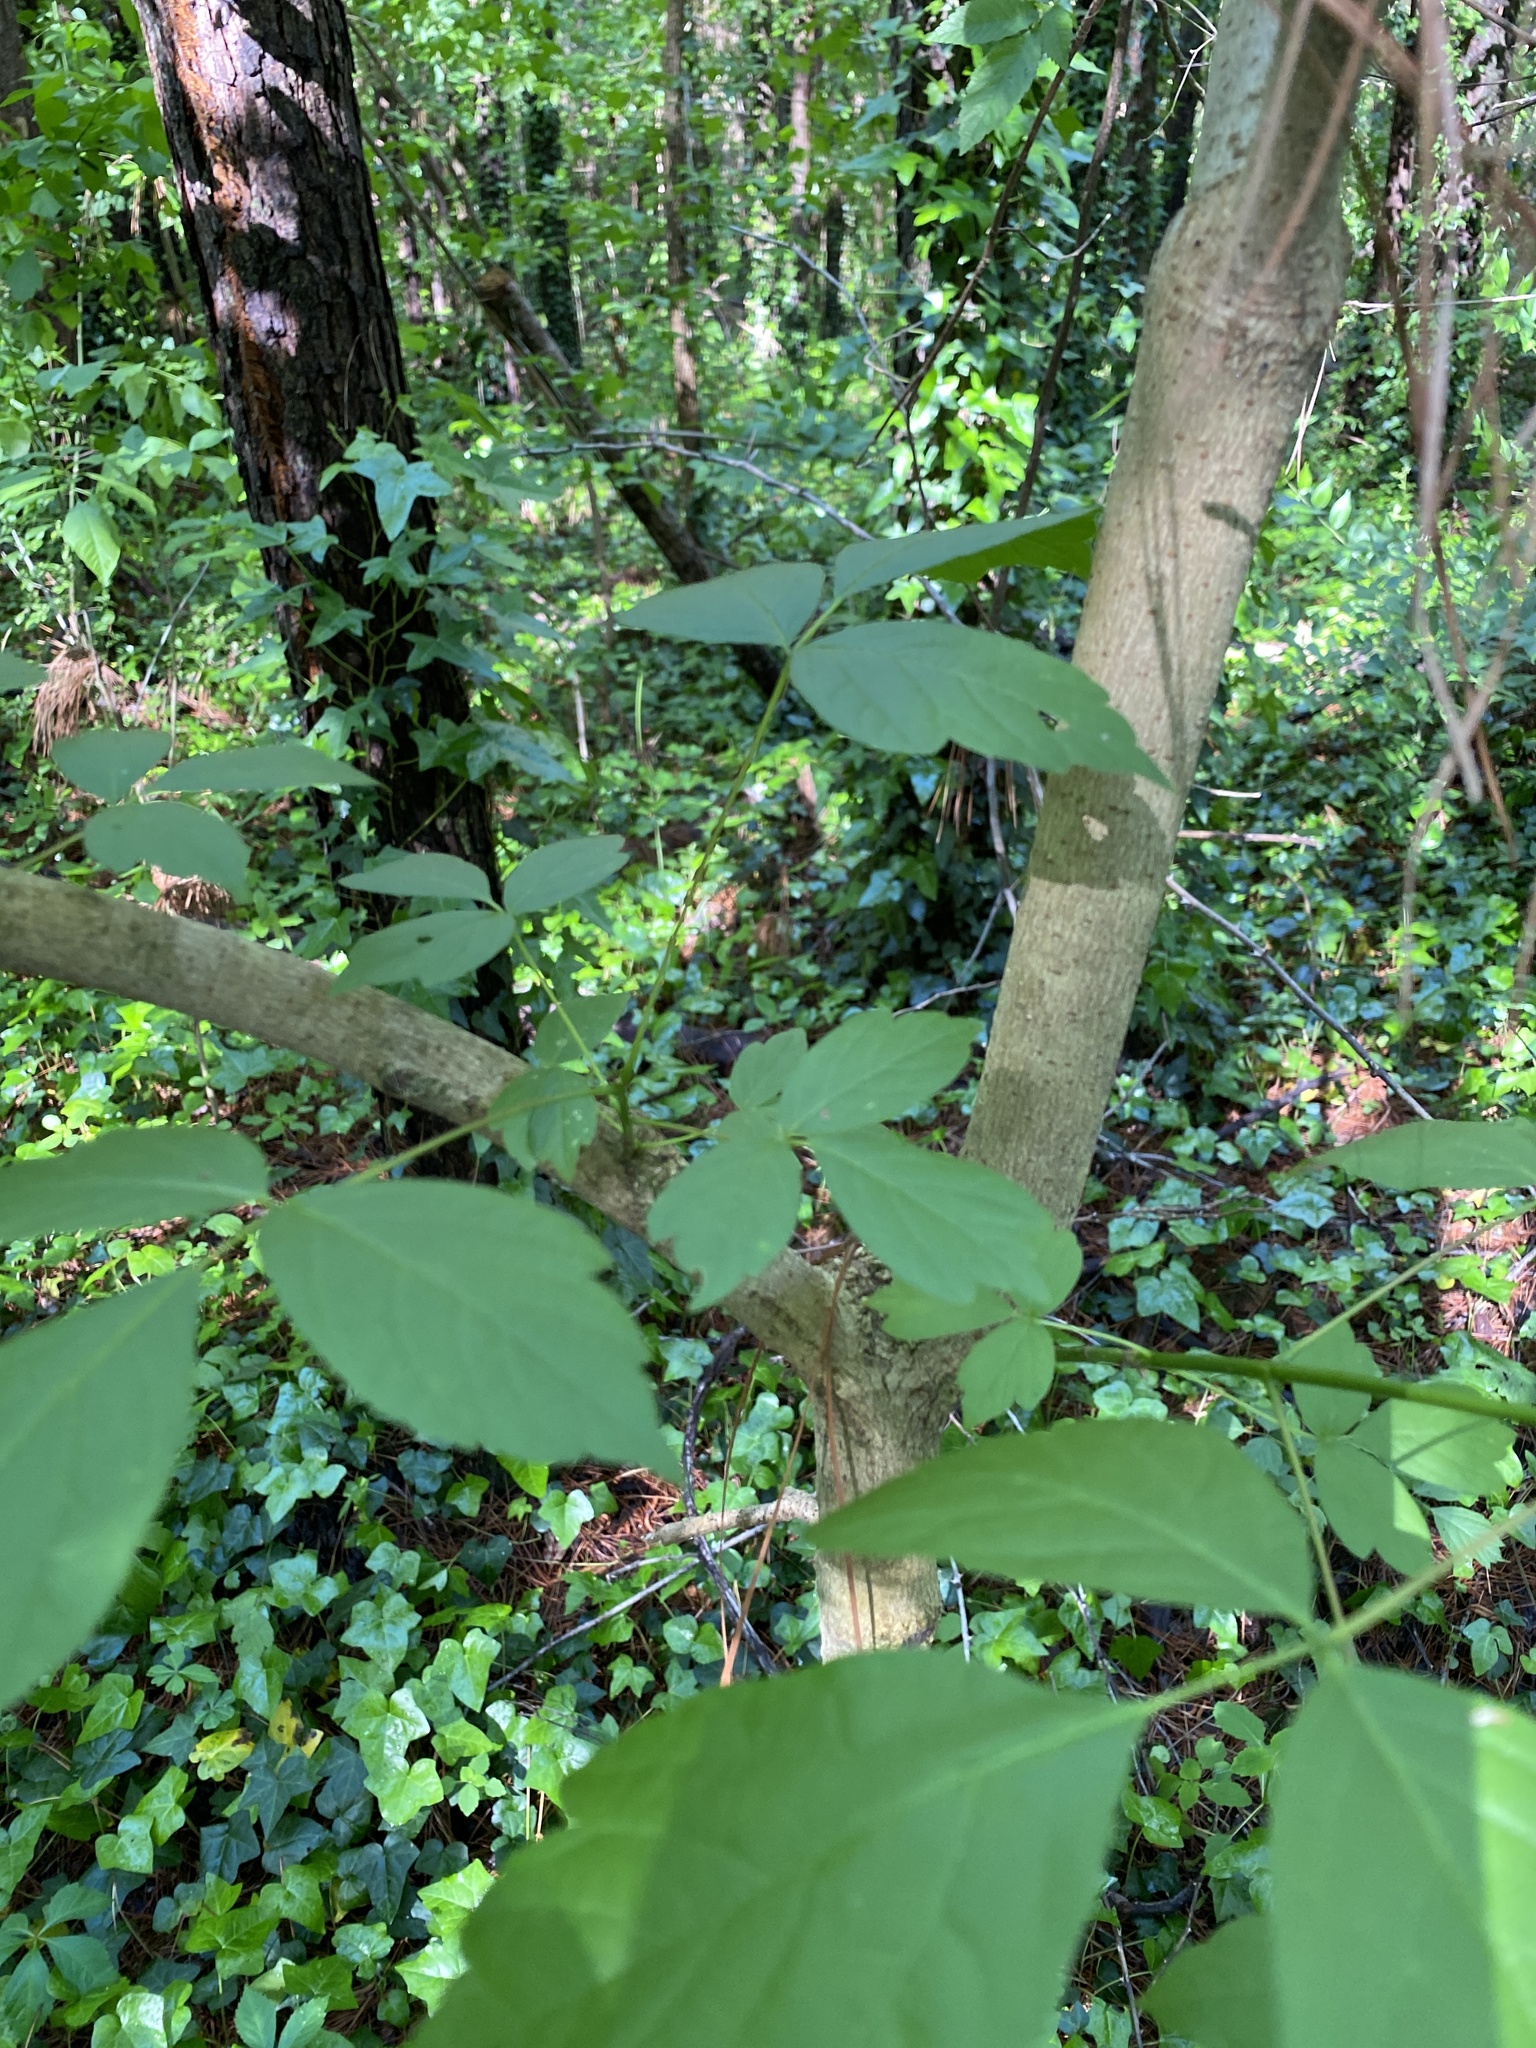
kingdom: Plantae
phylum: Tracheophyta
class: Magnoliopsida
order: Sapindales
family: Sapindaceae
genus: Acer
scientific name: Acer negundo
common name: Ashleaf maple
